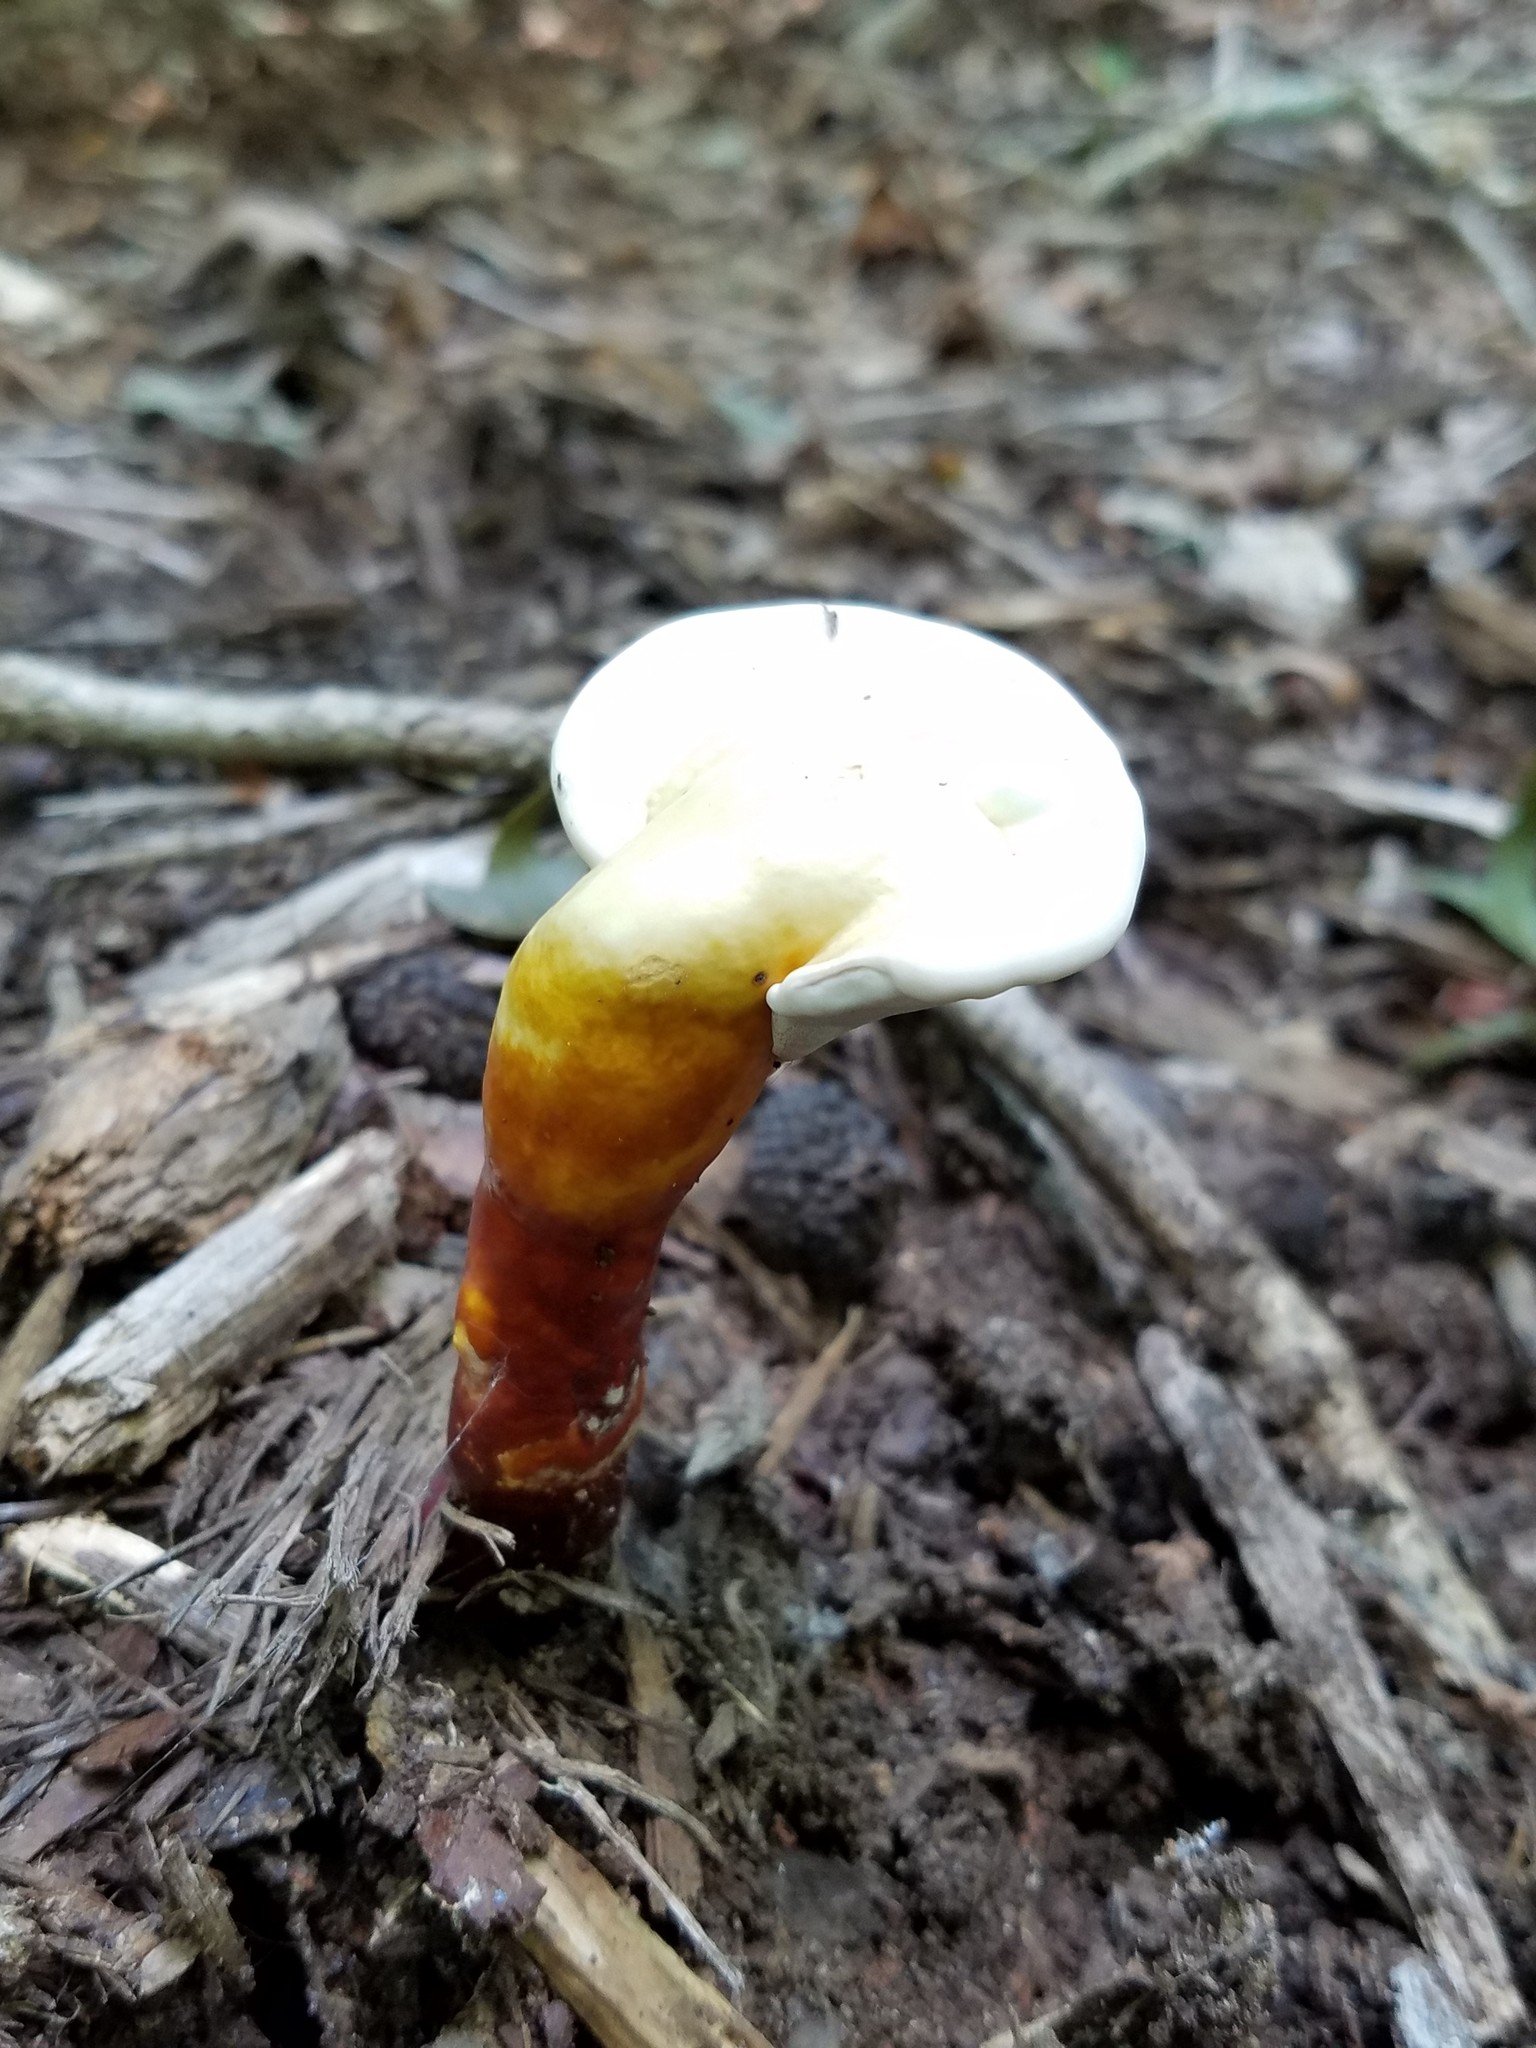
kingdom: Fungi
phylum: Basidiomycota
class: Agaricomycetes
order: Polyporales
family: Polyporaceae
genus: Ganoderma
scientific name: Ganoderma curtisii
